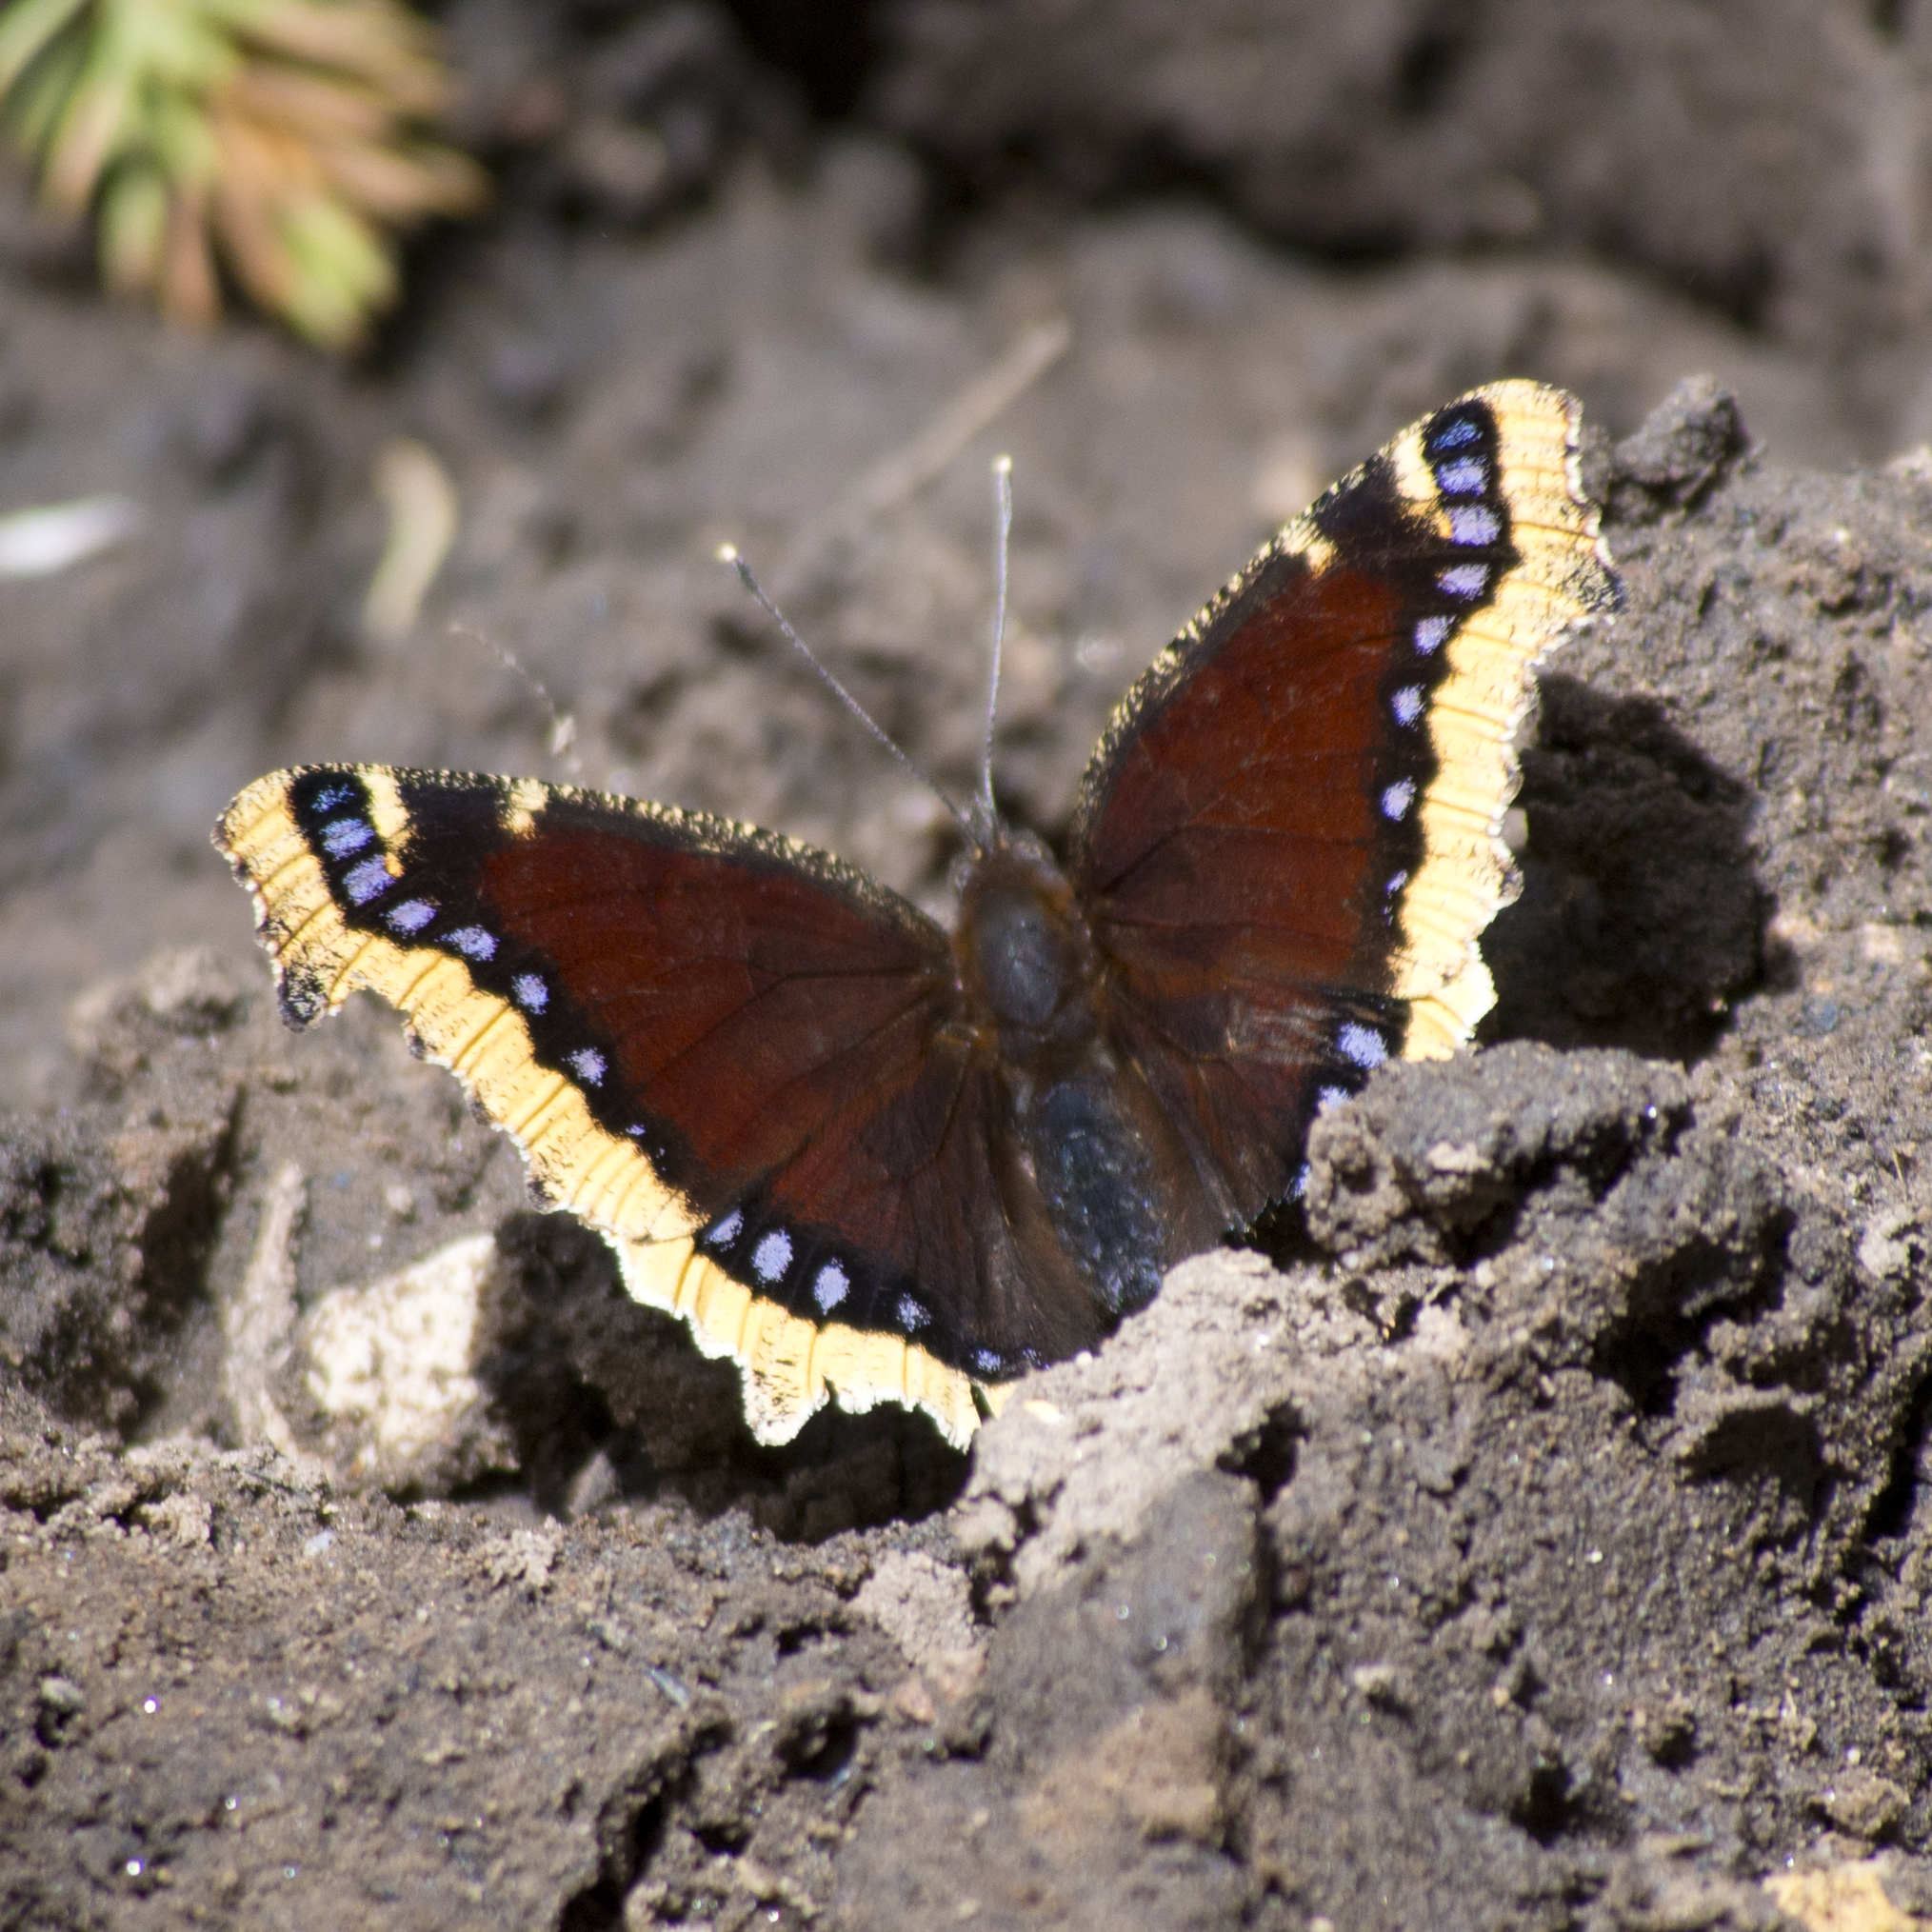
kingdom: Animalia
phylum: Arthropoda
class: Insecta
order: Lepidoptera
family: Nymphalidae
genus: Nymphalis
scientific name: Nymphalis antiopa
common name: Camberwell beauty
